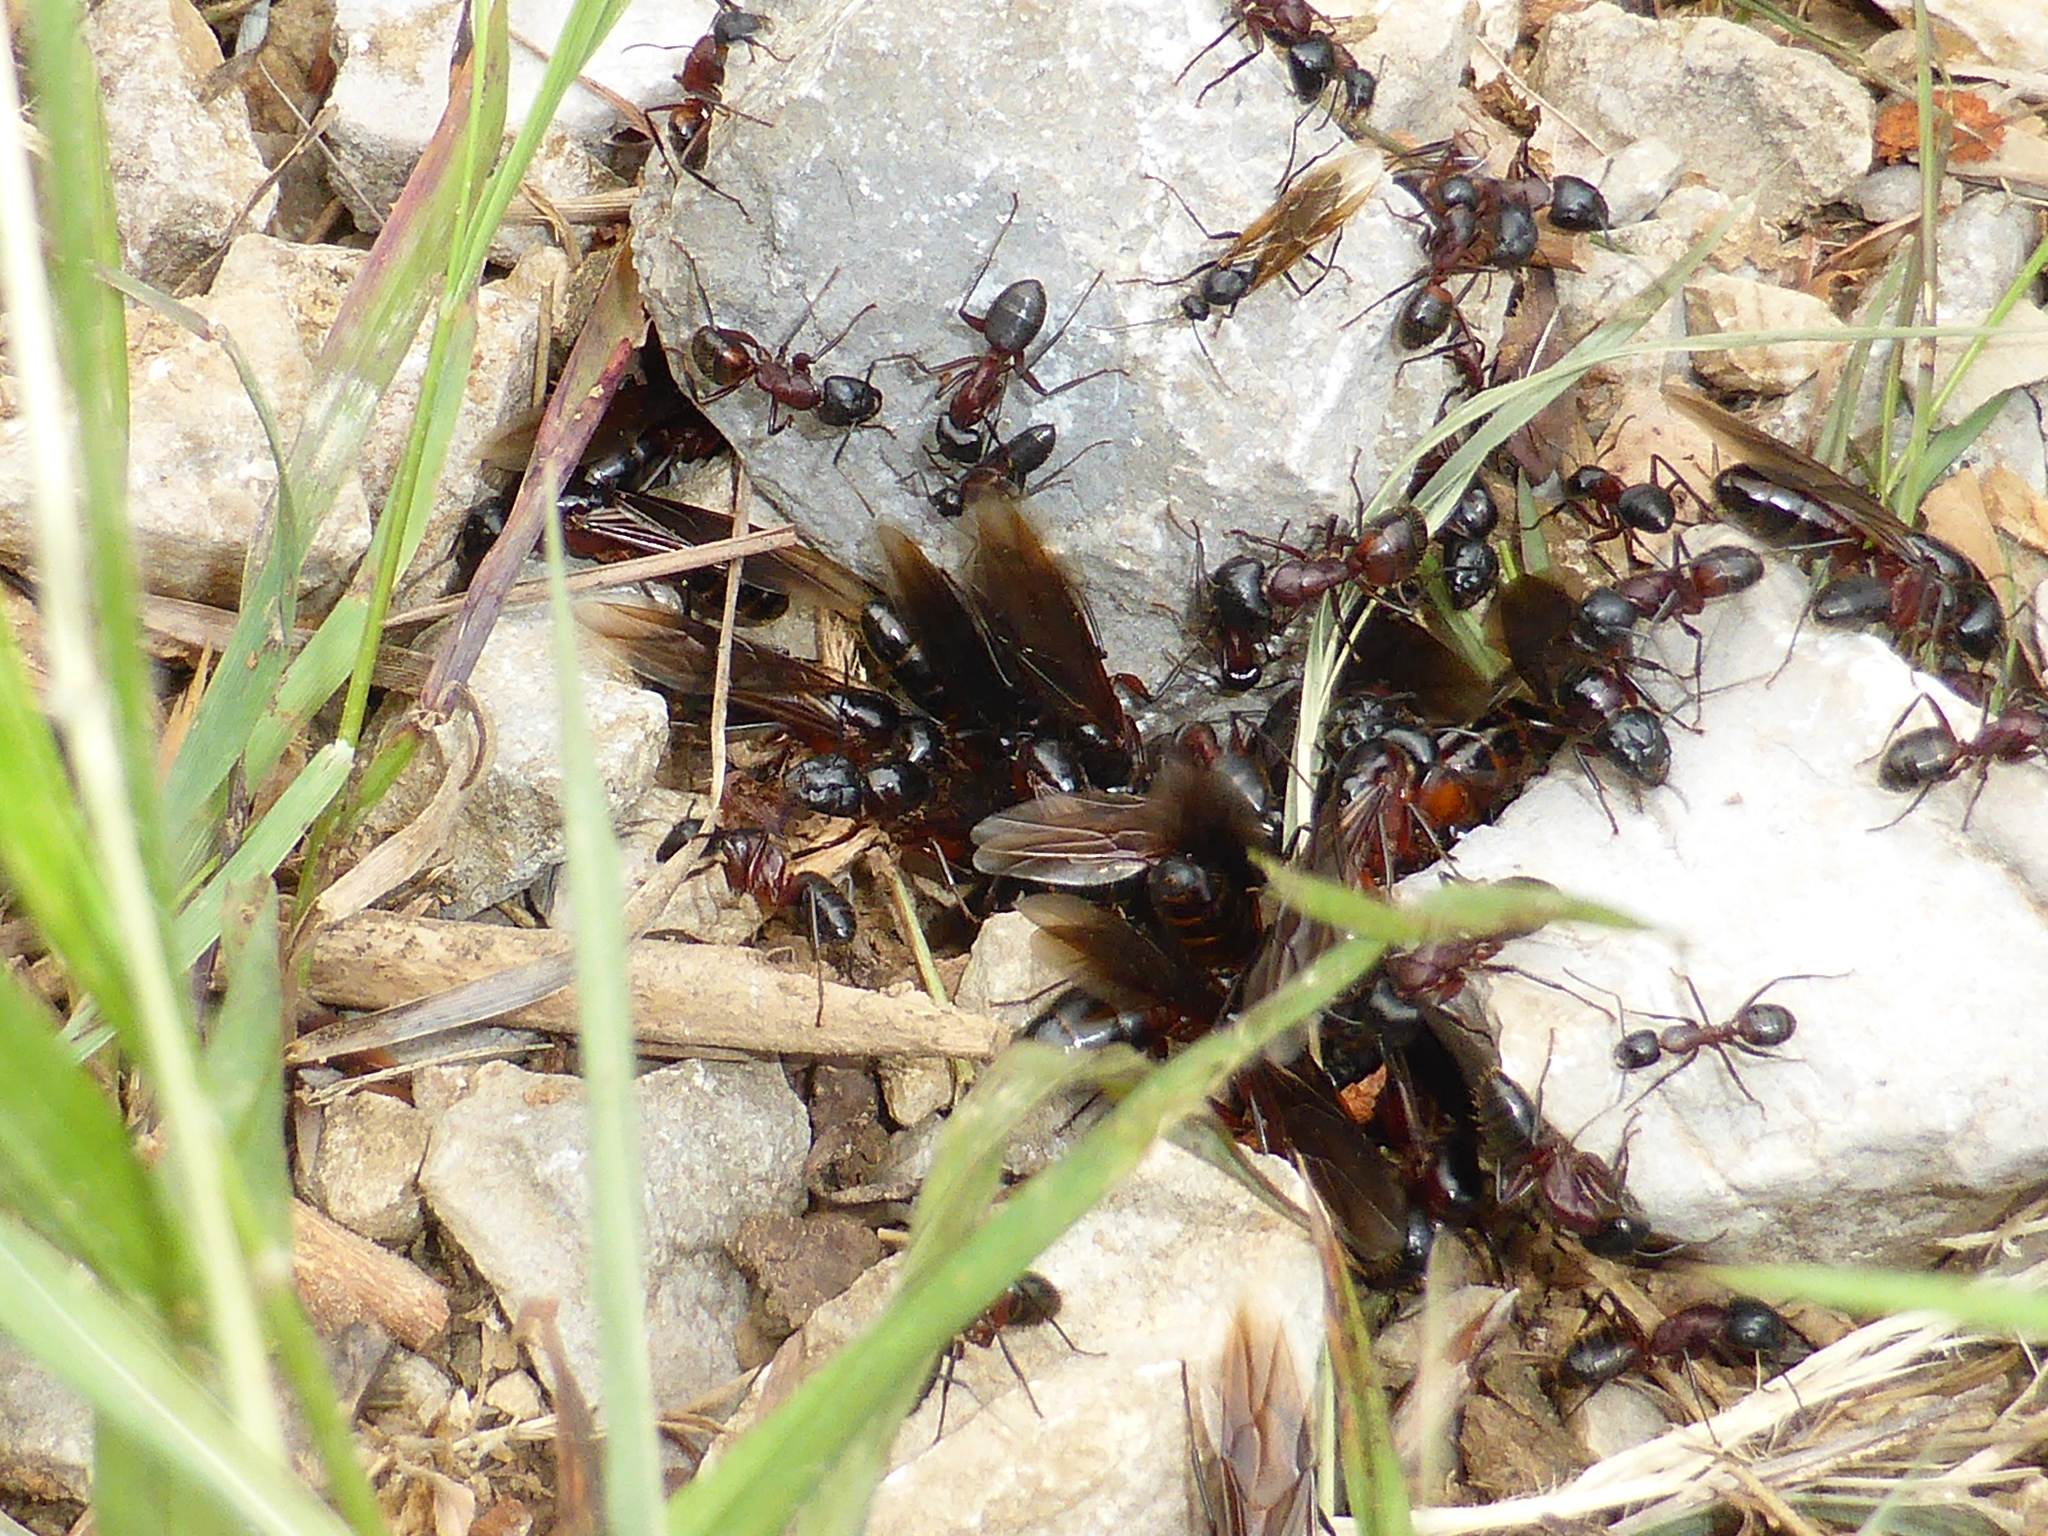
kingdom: Animalia
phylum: Arthropoda
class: Insecta
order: Hymenoptera
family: Formicidae
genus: Camponotus
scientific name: Camponotus ligniperdus
